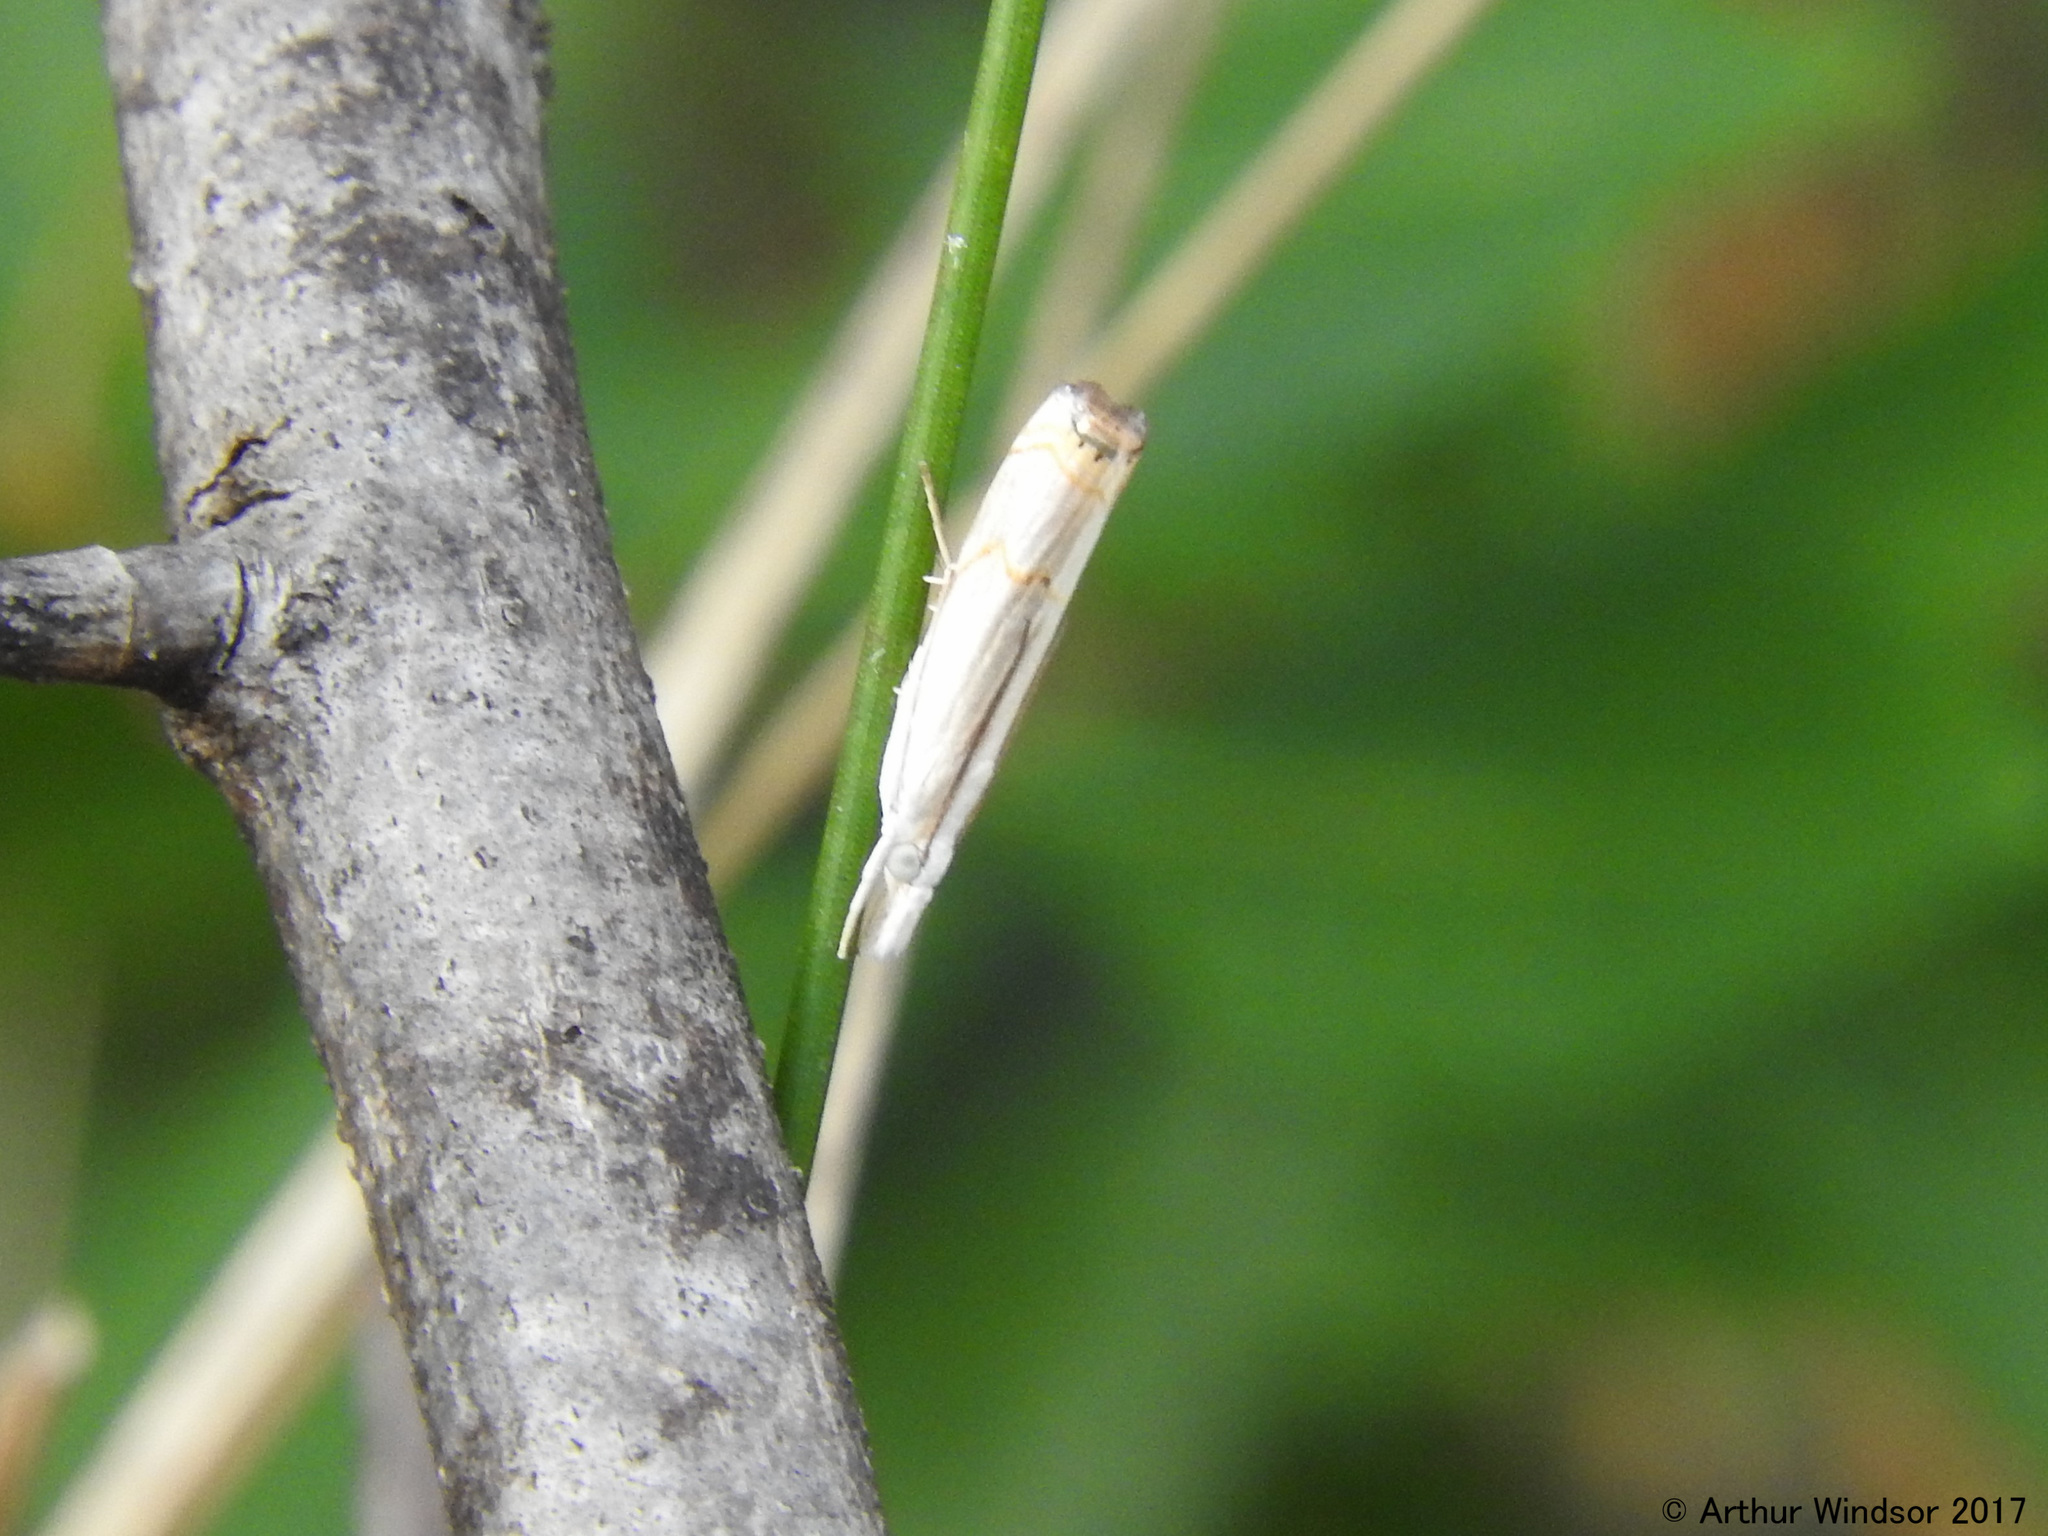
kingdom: Animalia
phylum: Arthropoda
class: Insecta
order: Lepidoptera
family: Crambidae
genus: Parapediasia
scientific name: Parapediasia decorellus
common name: Graceful grass-veneer
